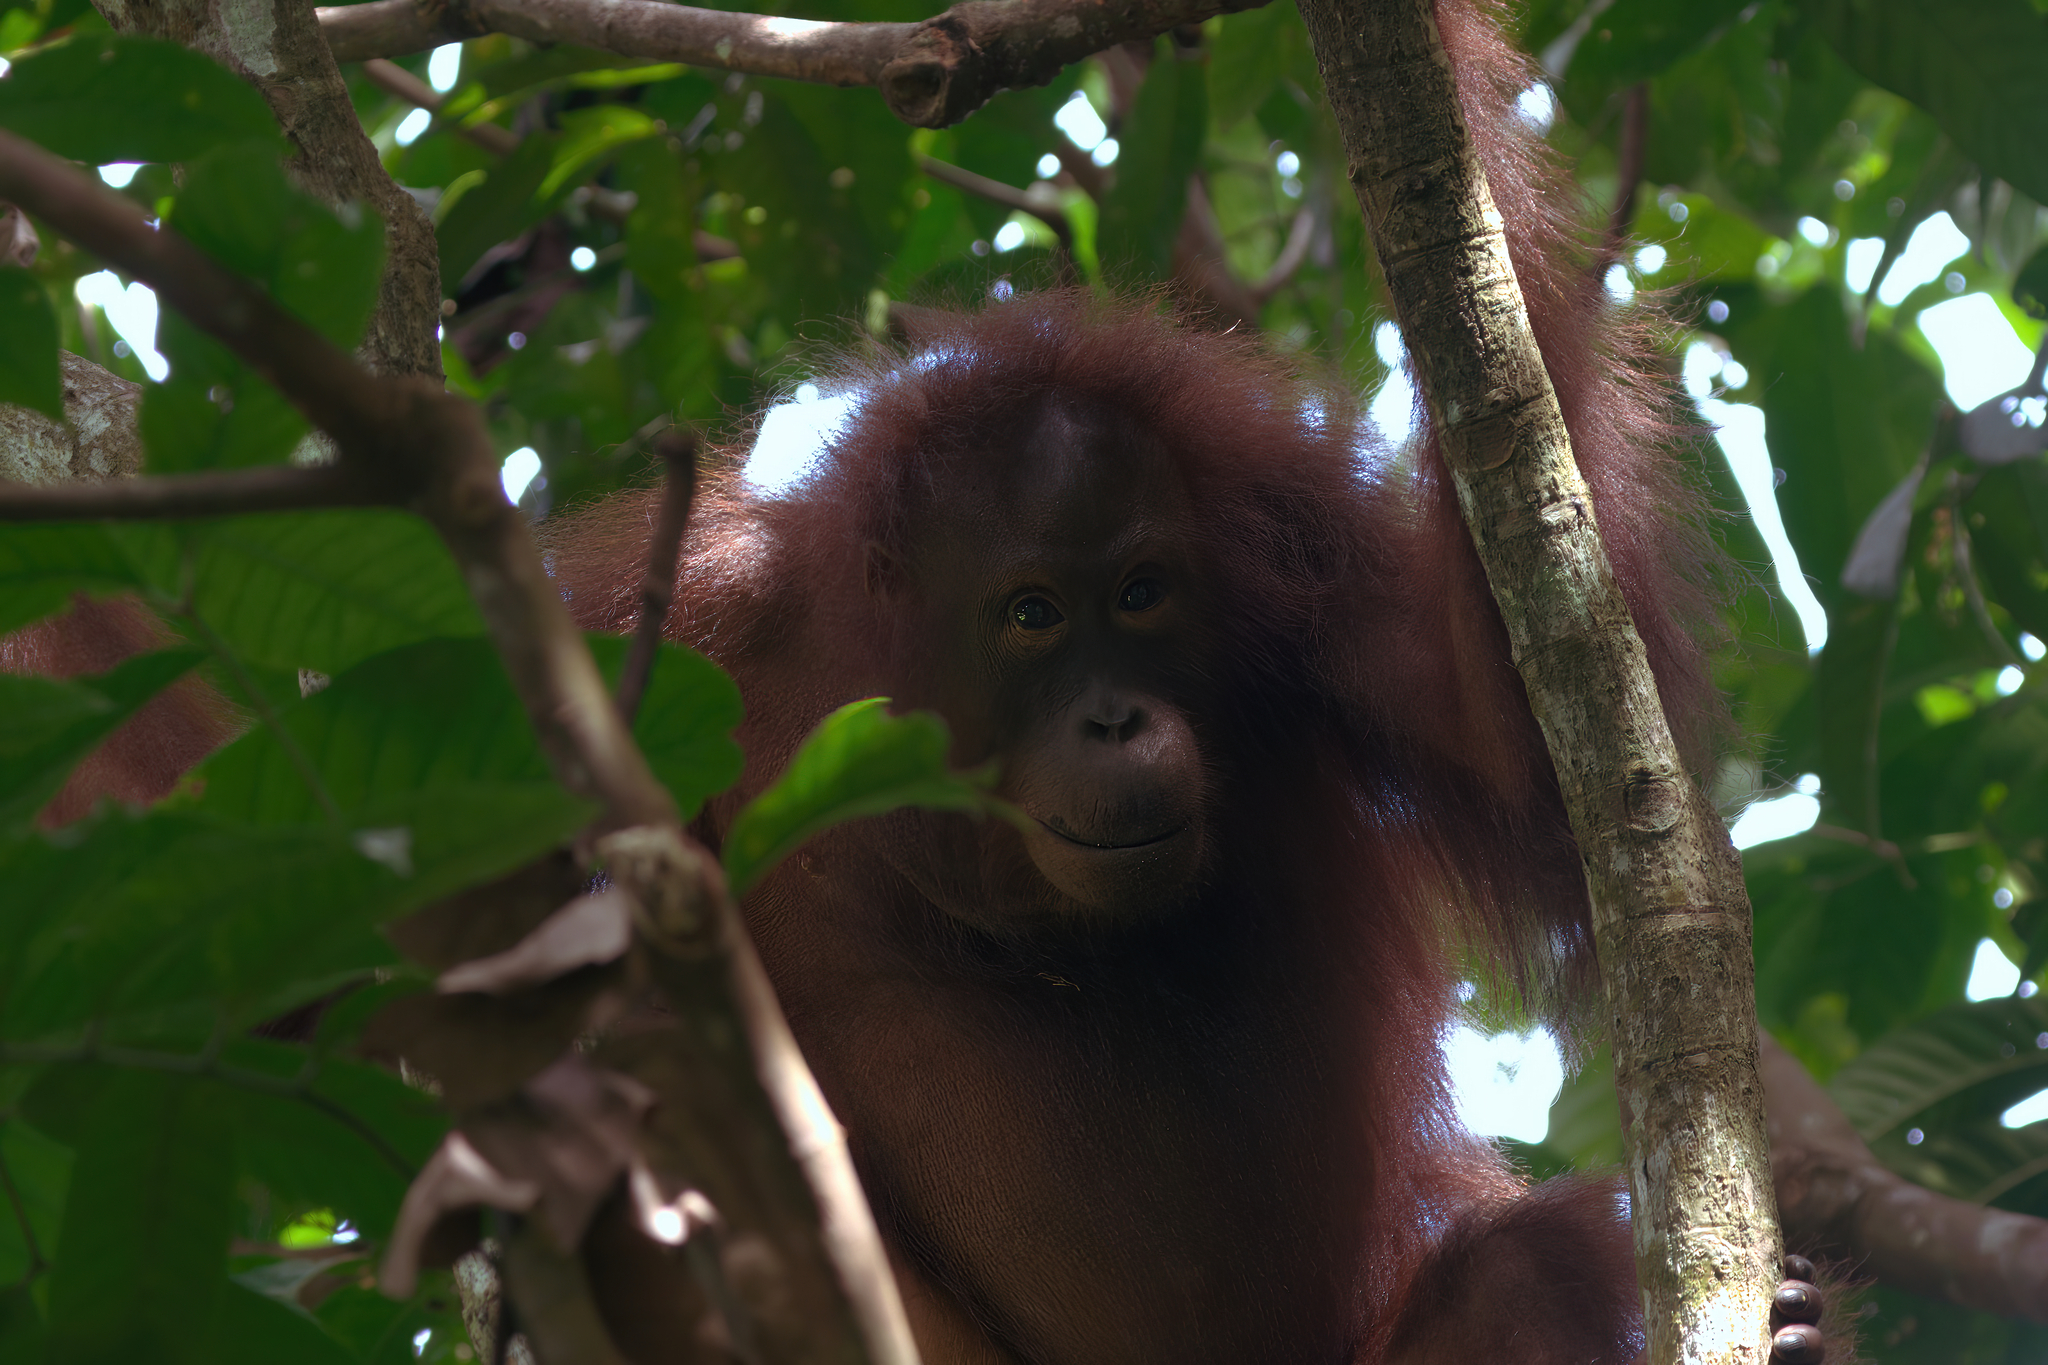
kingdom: Animalia
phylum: Chordata
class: Mammalia
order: Primates
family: Hominidae
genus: Pongo
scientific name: Pongo pygmaeus
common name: Bornean orangutan
